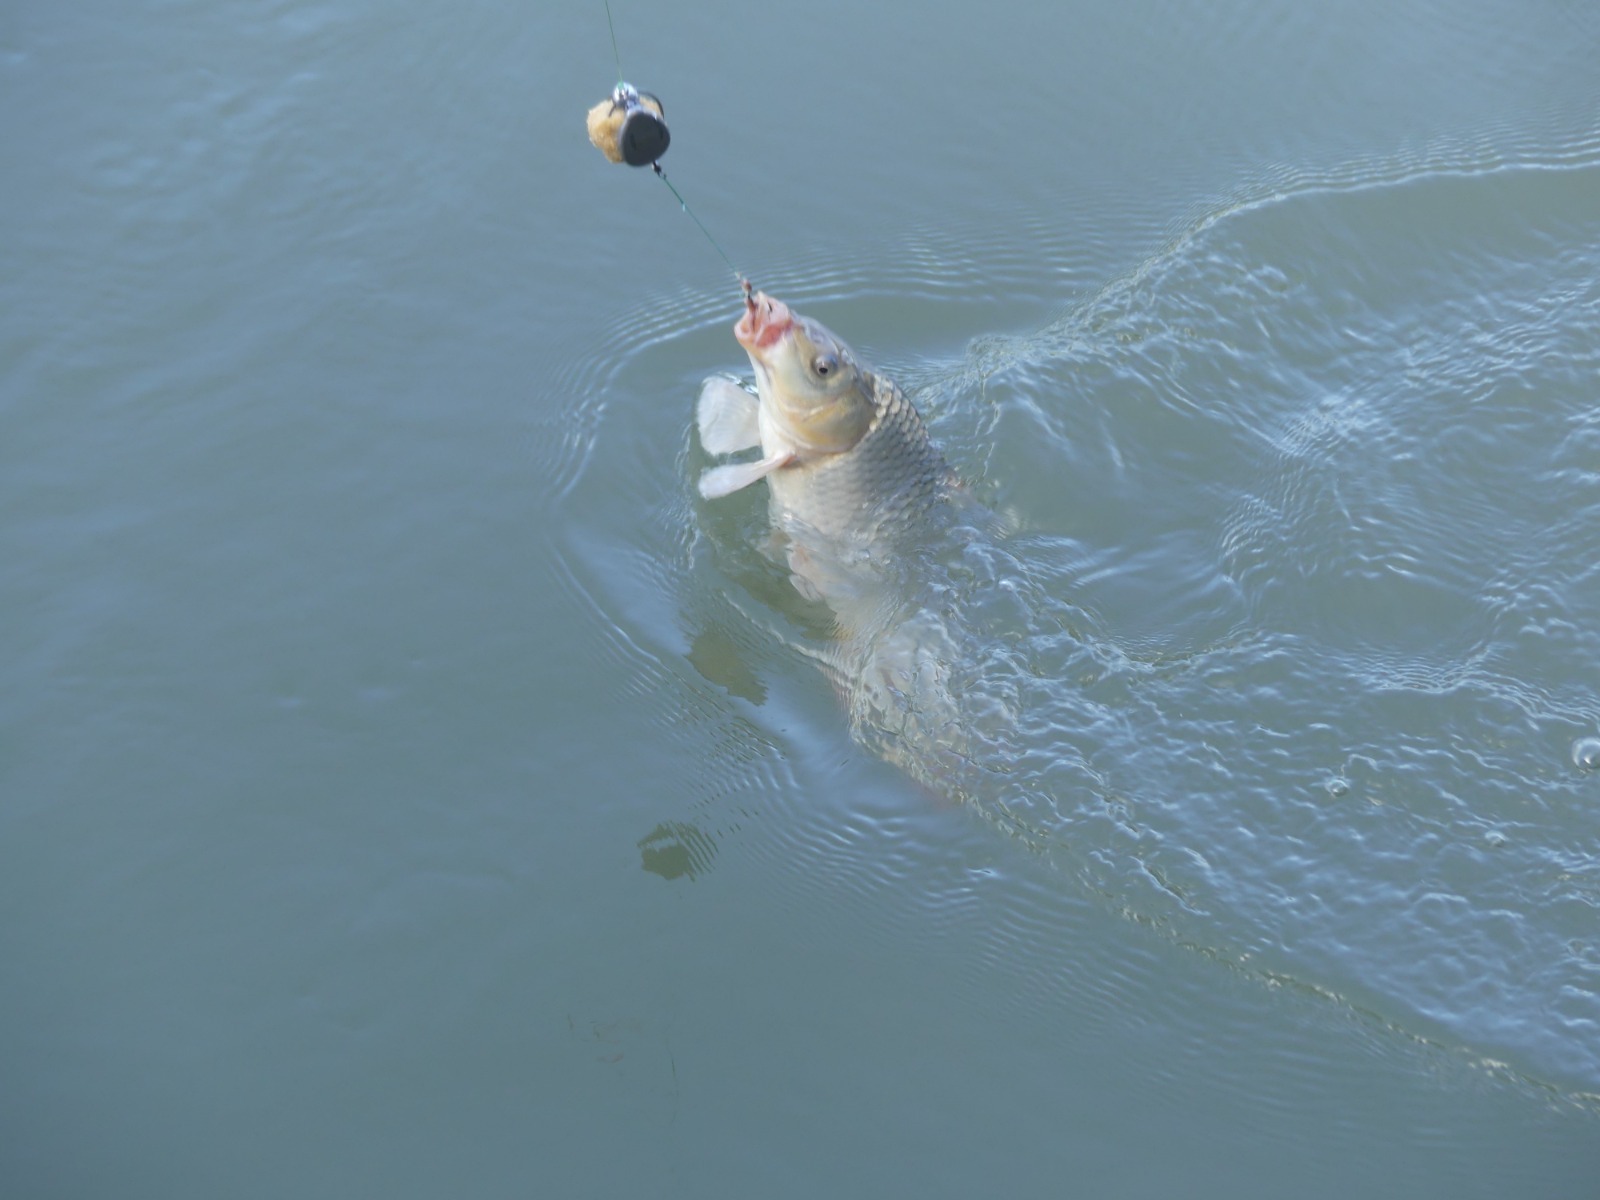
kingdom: Animalia
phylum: Chordata
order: Cypriniformes
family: Cyprinidae
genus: Cyprinus
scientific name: Cyprinus carpio
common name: Common carp
